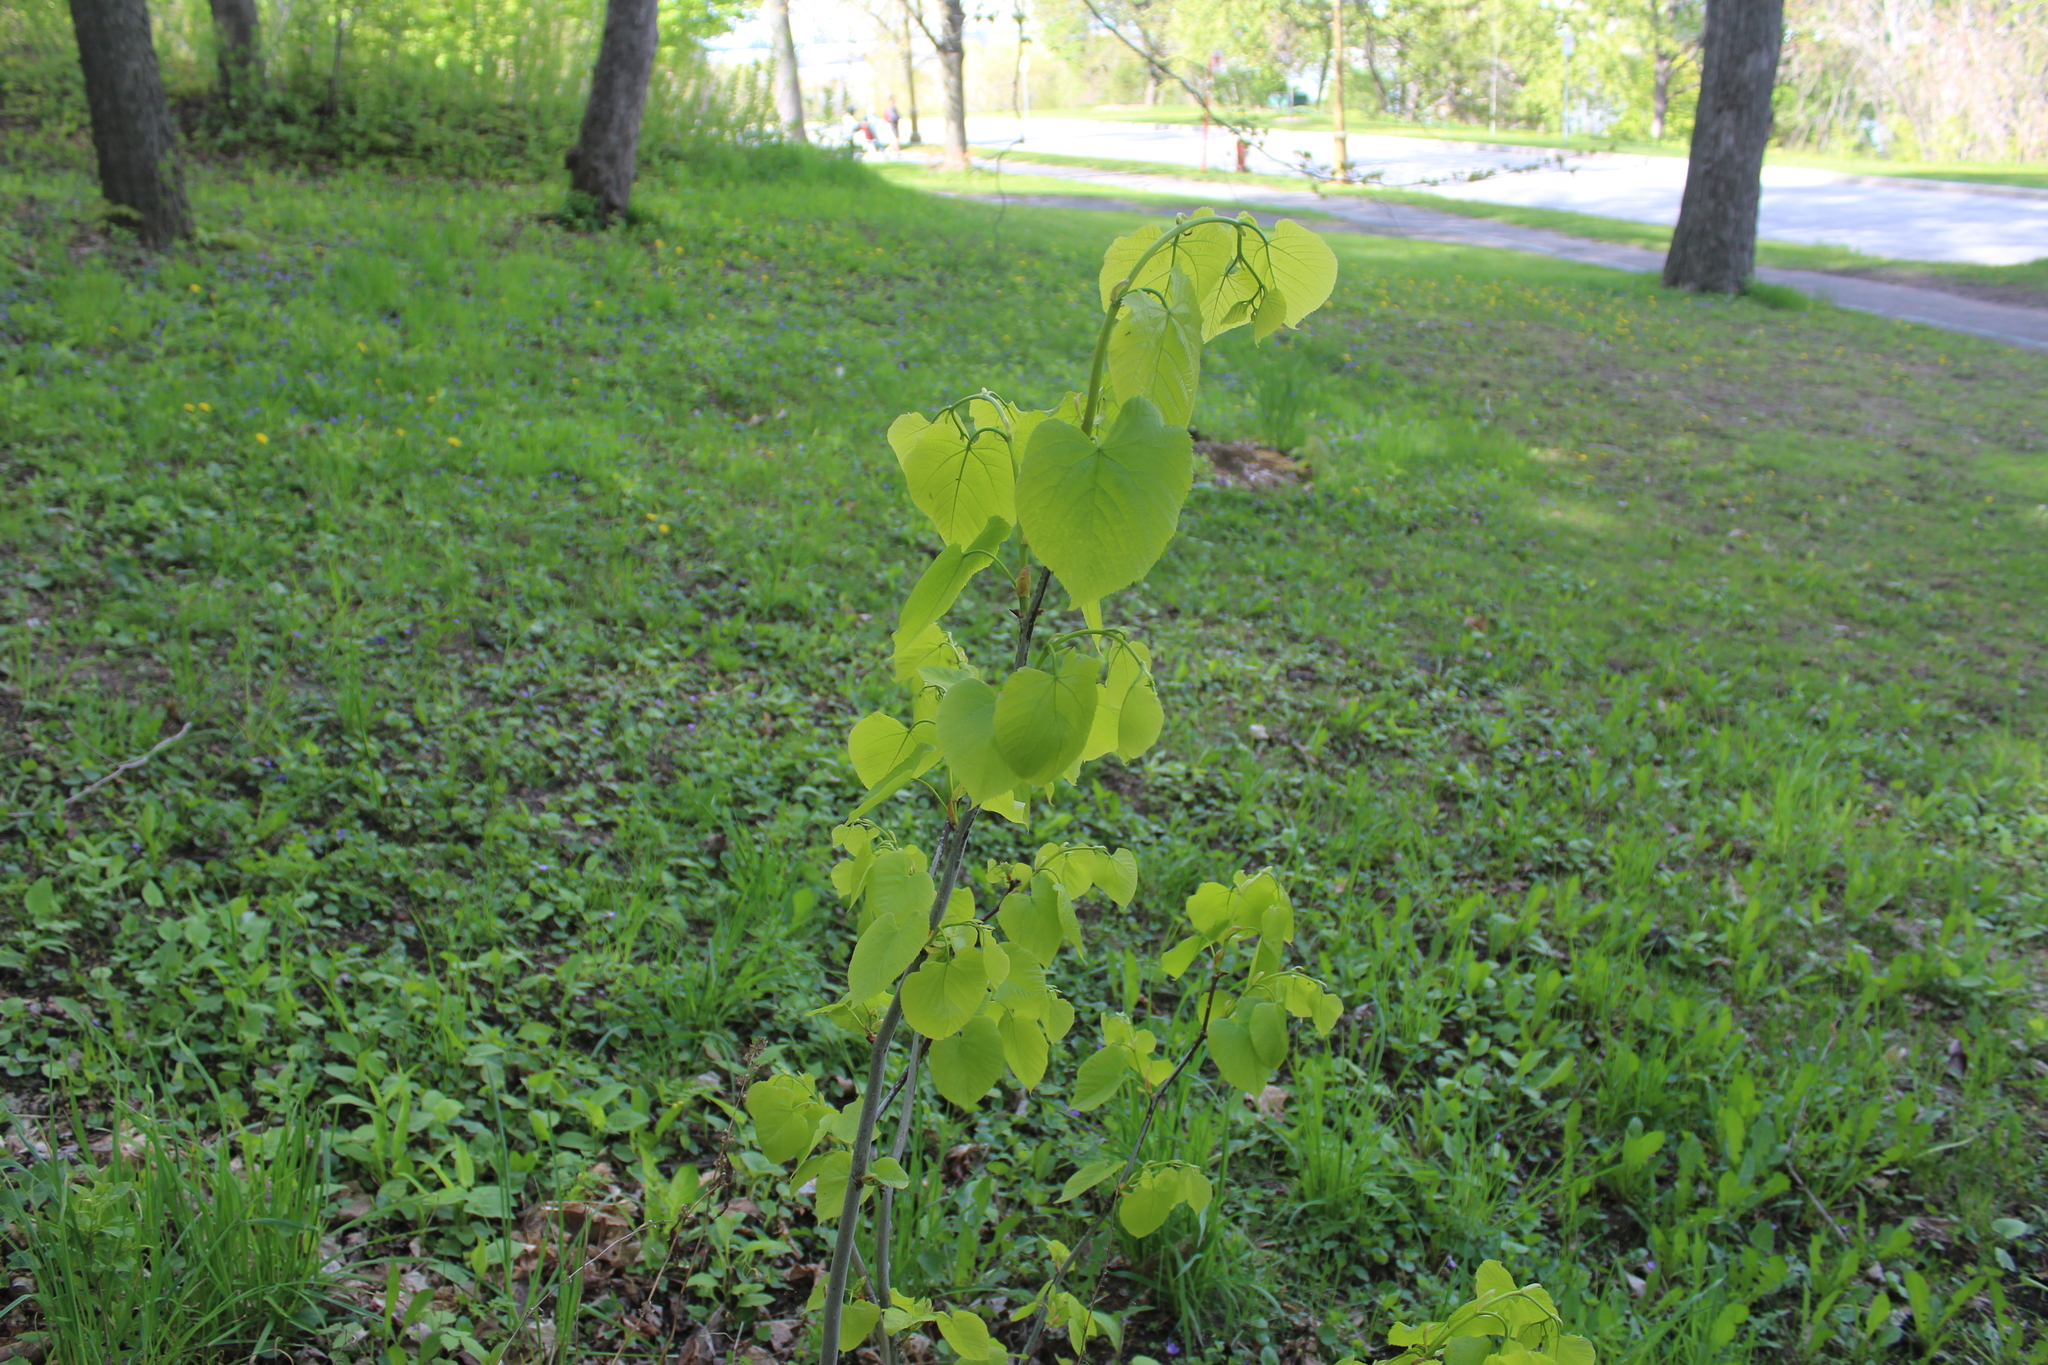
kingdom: Plantae
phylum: Tracheophyta
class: Magnoliopsida
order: Malvales
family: Malvaceae
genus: Tilia
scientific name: Tilia americana
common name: Basswood
